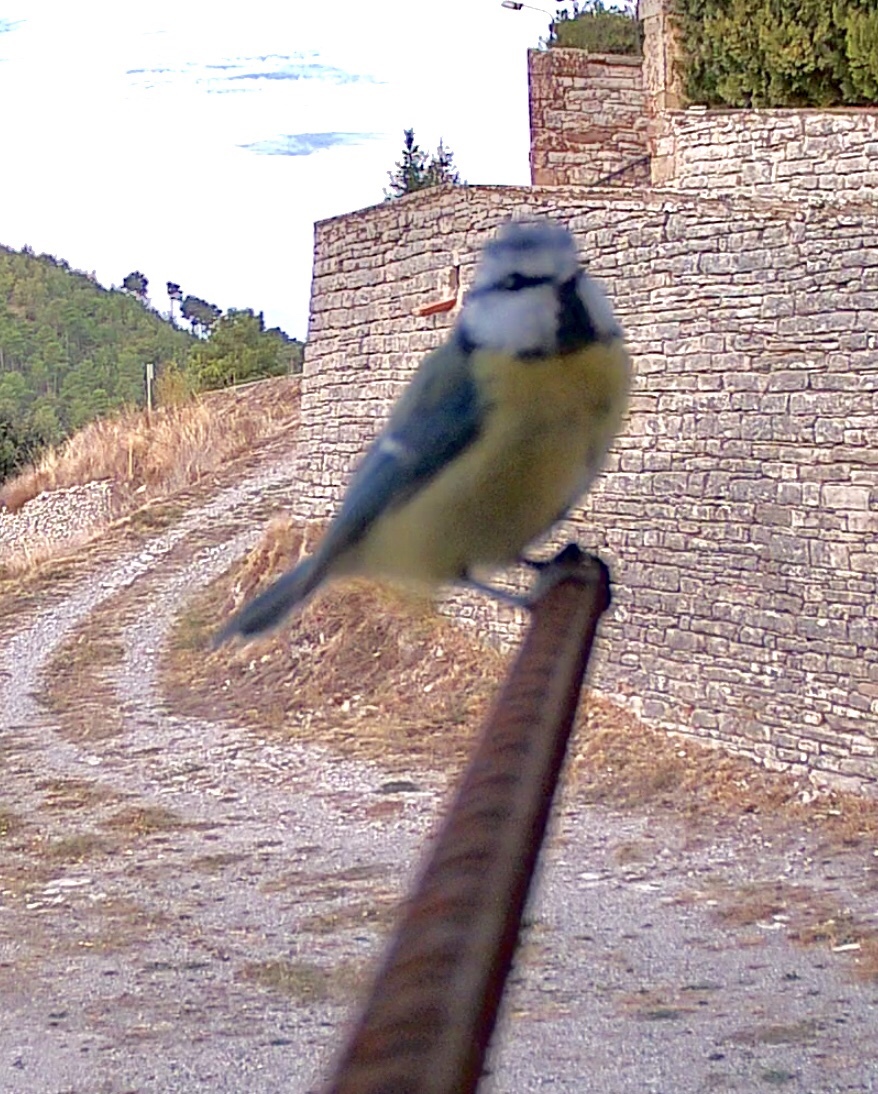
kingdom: Animalia
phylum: Chordata
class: Aves
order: Passeriformes
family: Paridae
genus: Cyanistes
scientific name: Cyanistes caeruleus
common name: Eurasian blue tit
